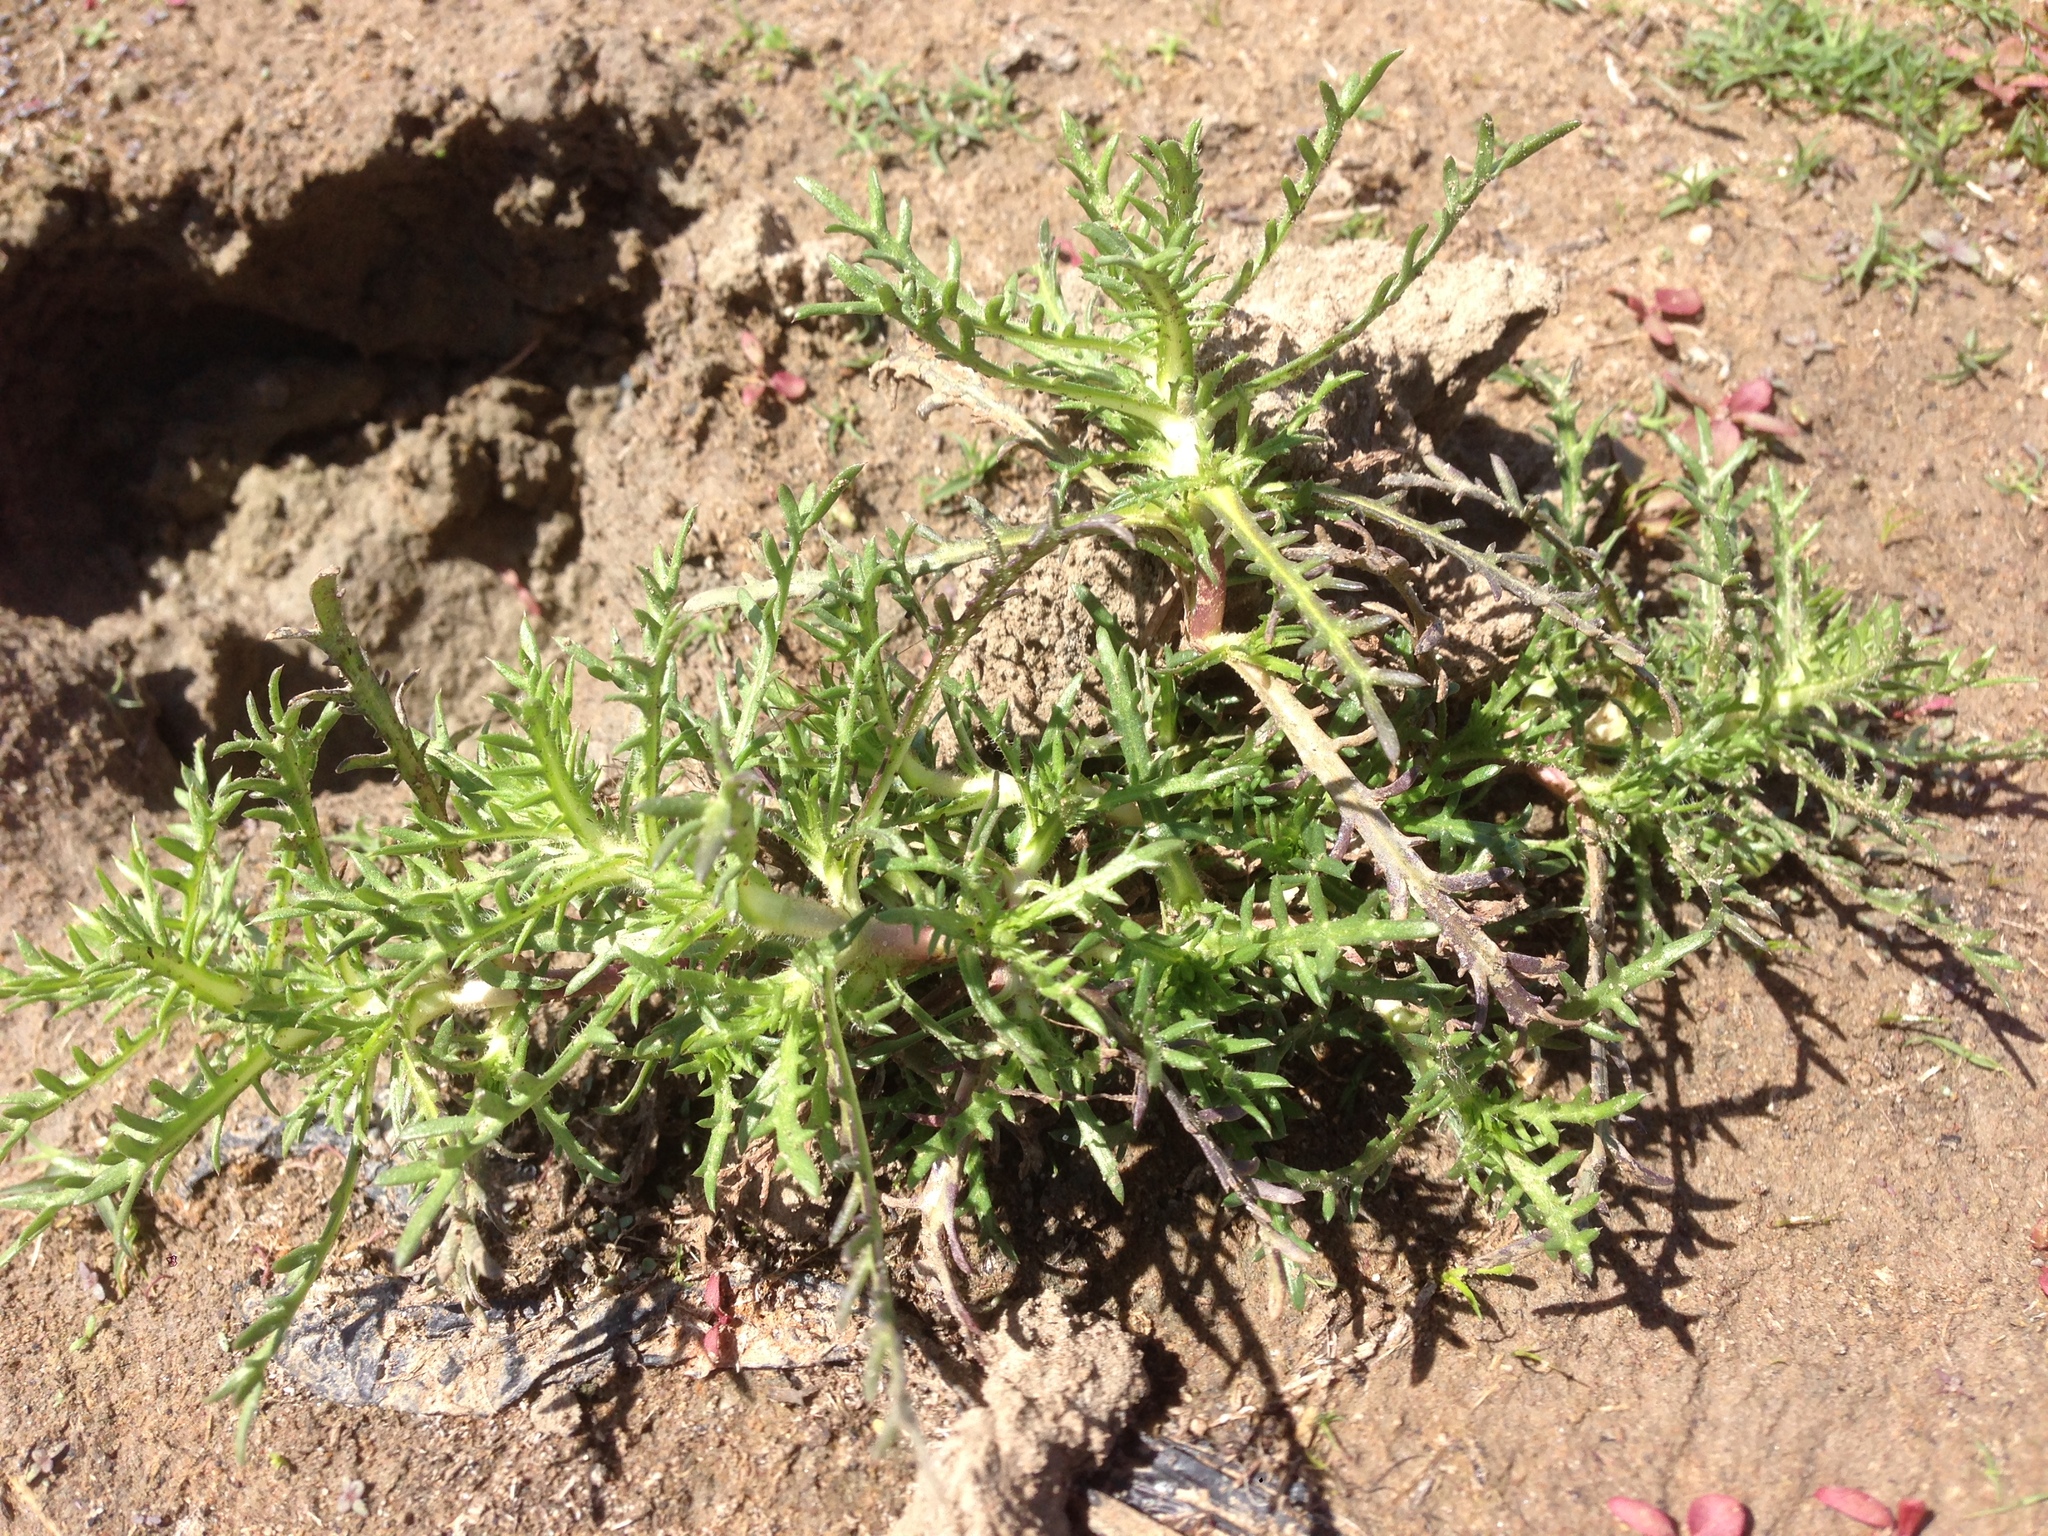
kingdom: Plantae
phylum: Tracheophyta
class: Magnoliopsida
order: Asterales
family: Asteraceae
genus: Centromadia
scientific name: Centromadia perennis
